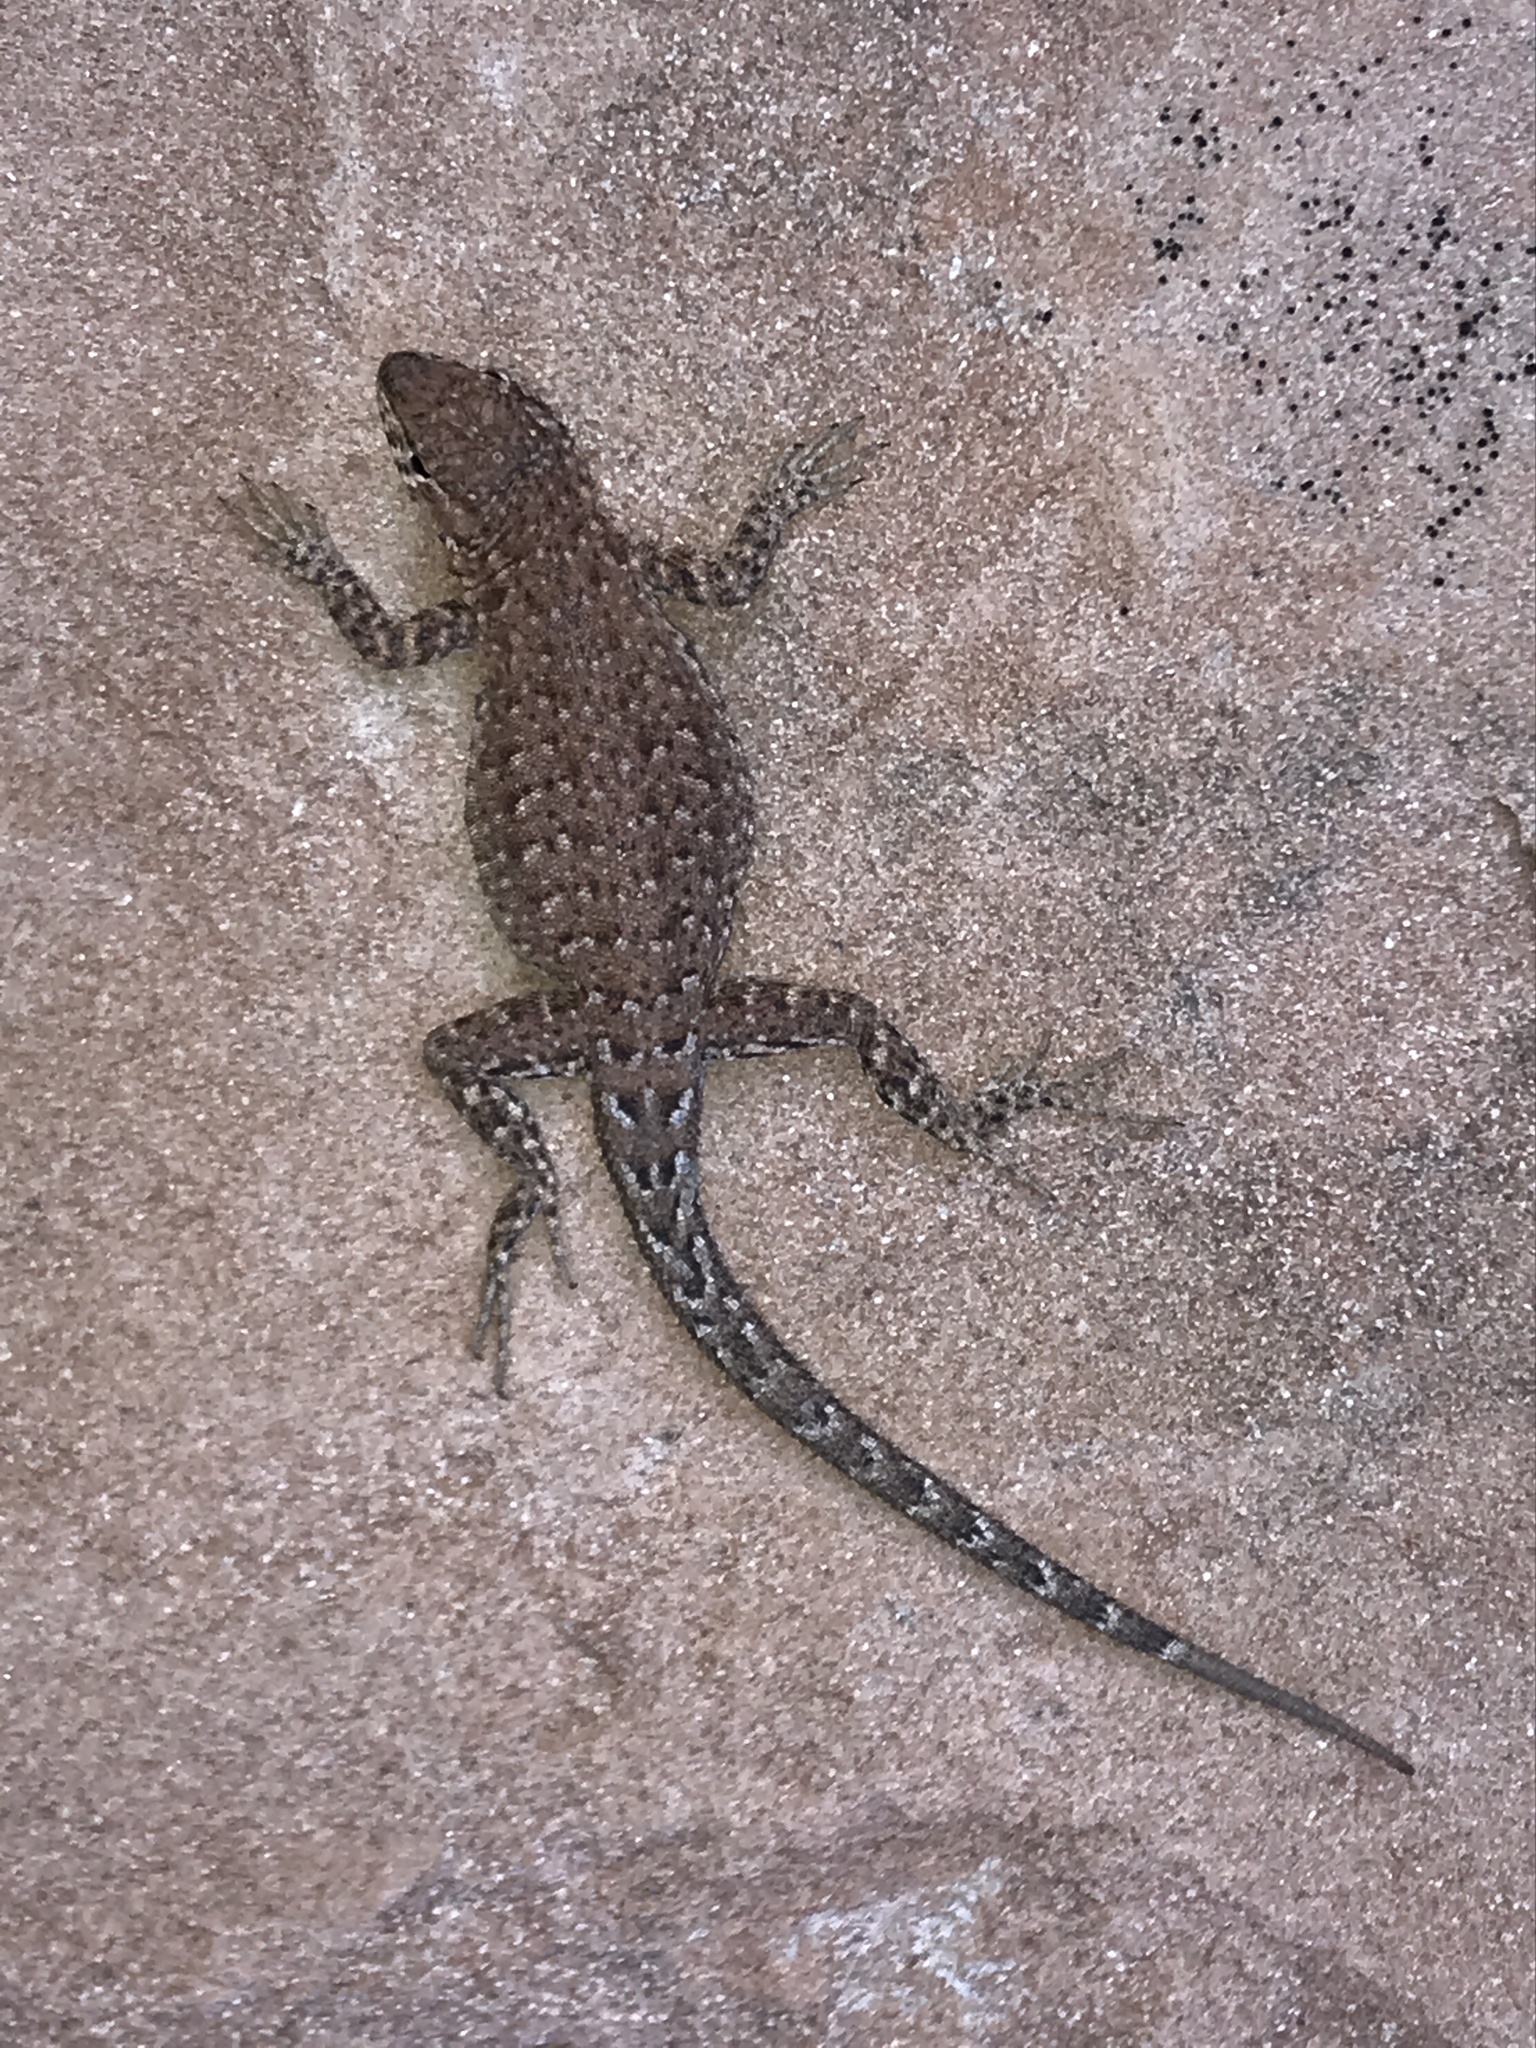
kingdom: Animalia
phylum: Chordata
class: Squamata
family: Phrynosomatidae
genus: Uta
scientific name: Uta stansburiana
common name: Side-blotched lizard
